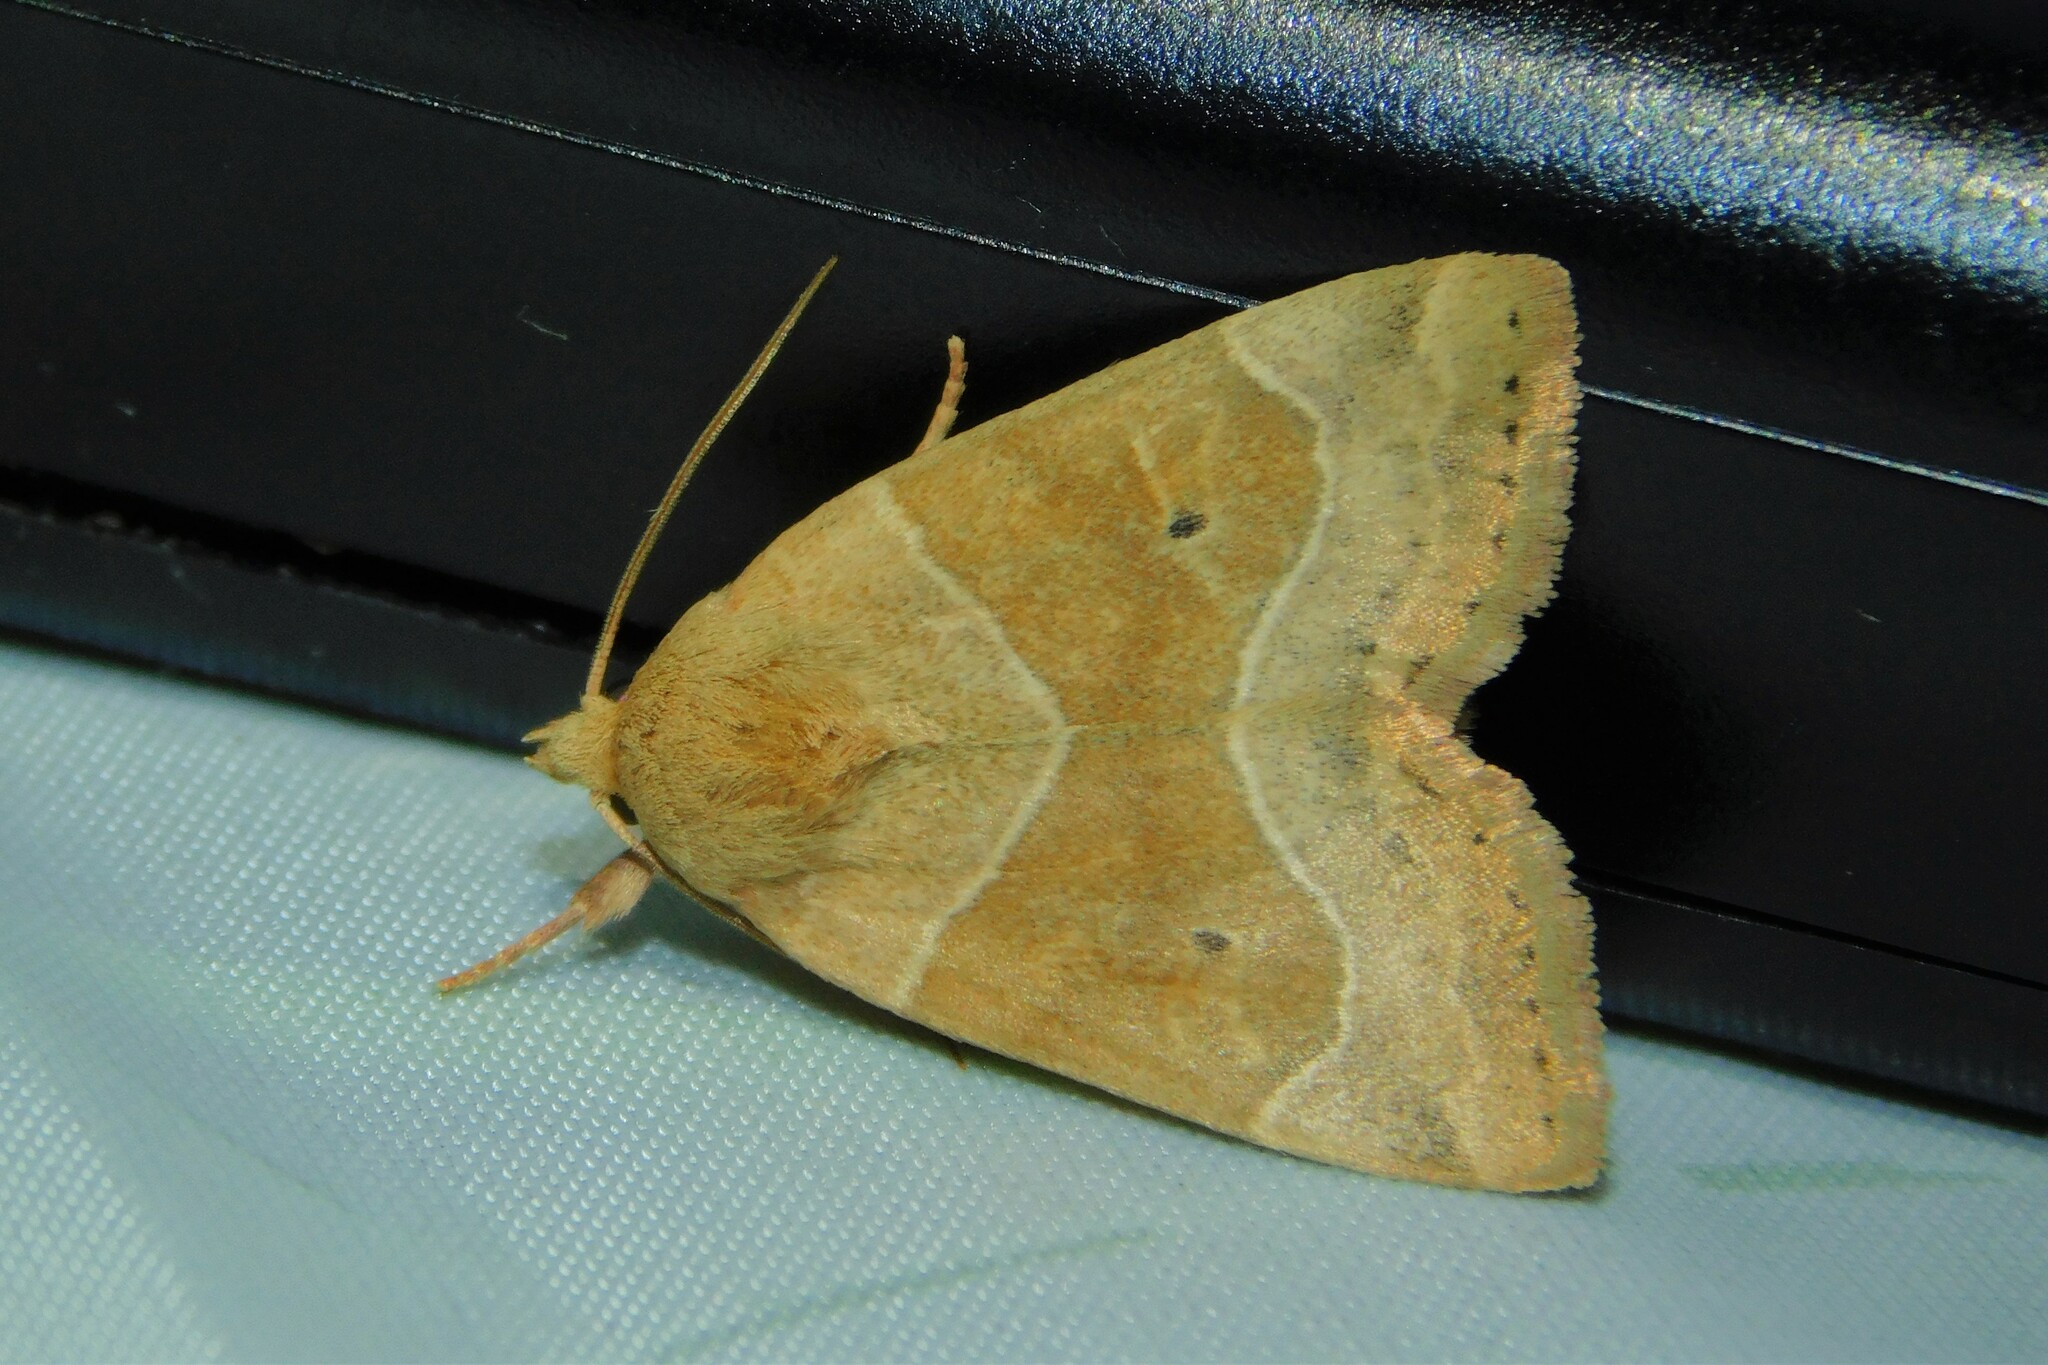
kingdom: Animalia
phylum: Arthropoda
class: Insecta
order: Lepidoptera
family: Noctuidae
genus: Cosmia
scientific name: Cosmia trapezina
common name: Dun-bar
